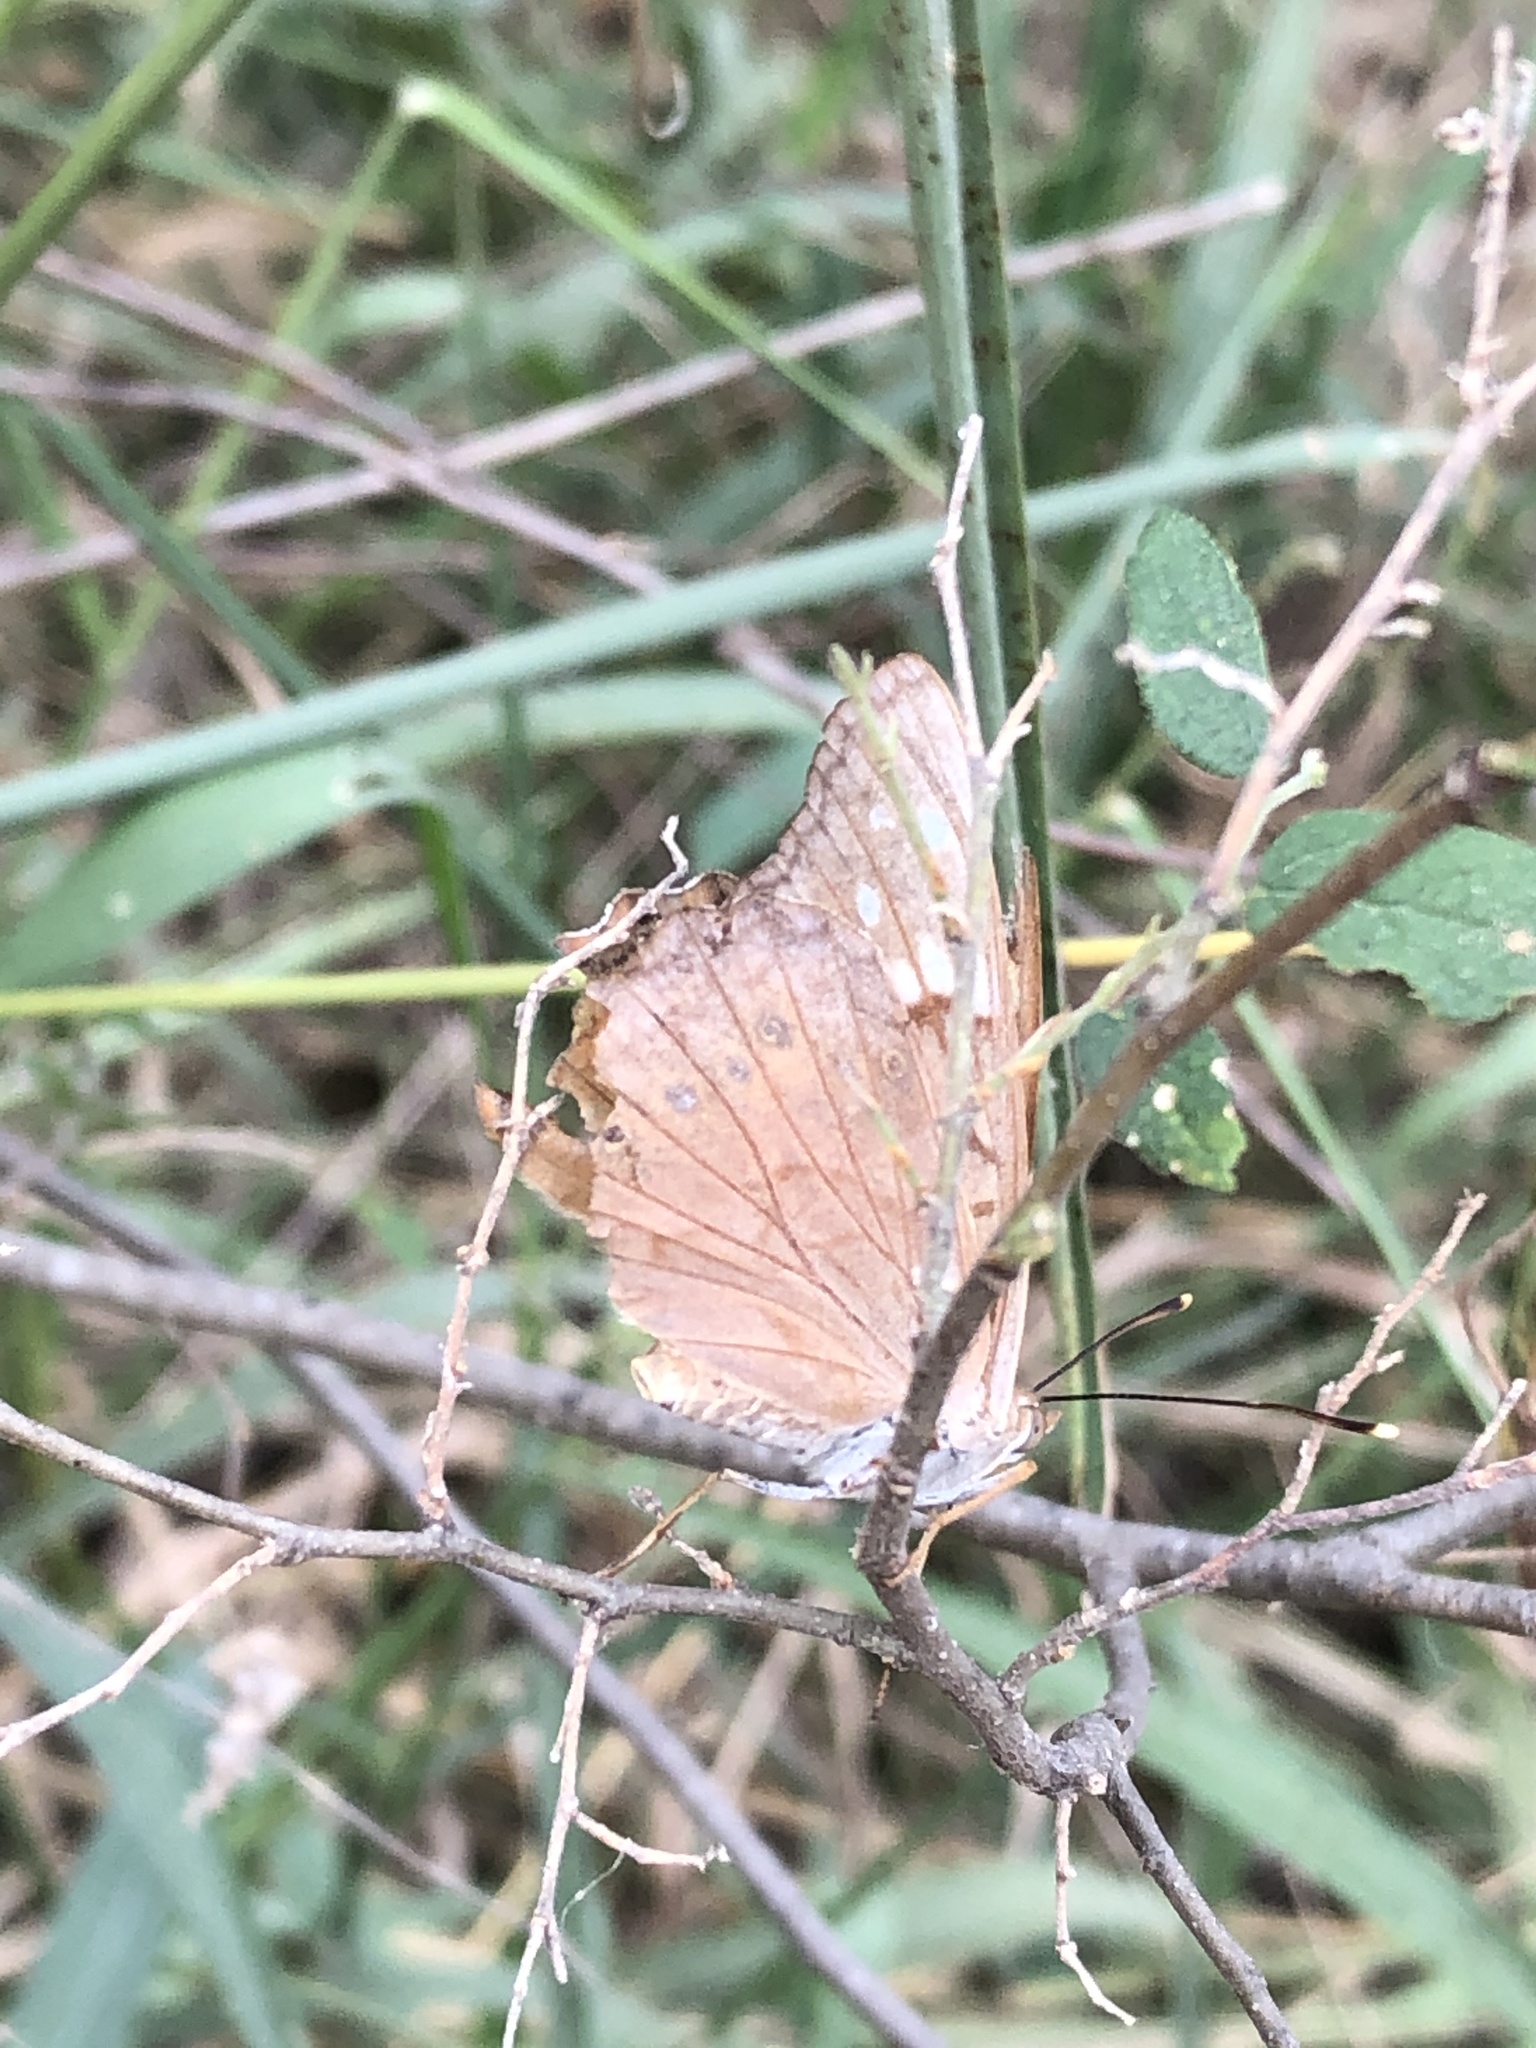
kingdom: Animalia
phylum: Arthropoda
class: Insecta
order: Lepidoptera
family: Nymphalidae
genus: Asterocampa
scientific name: Asterocampa clyton
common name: Tawny emperor
